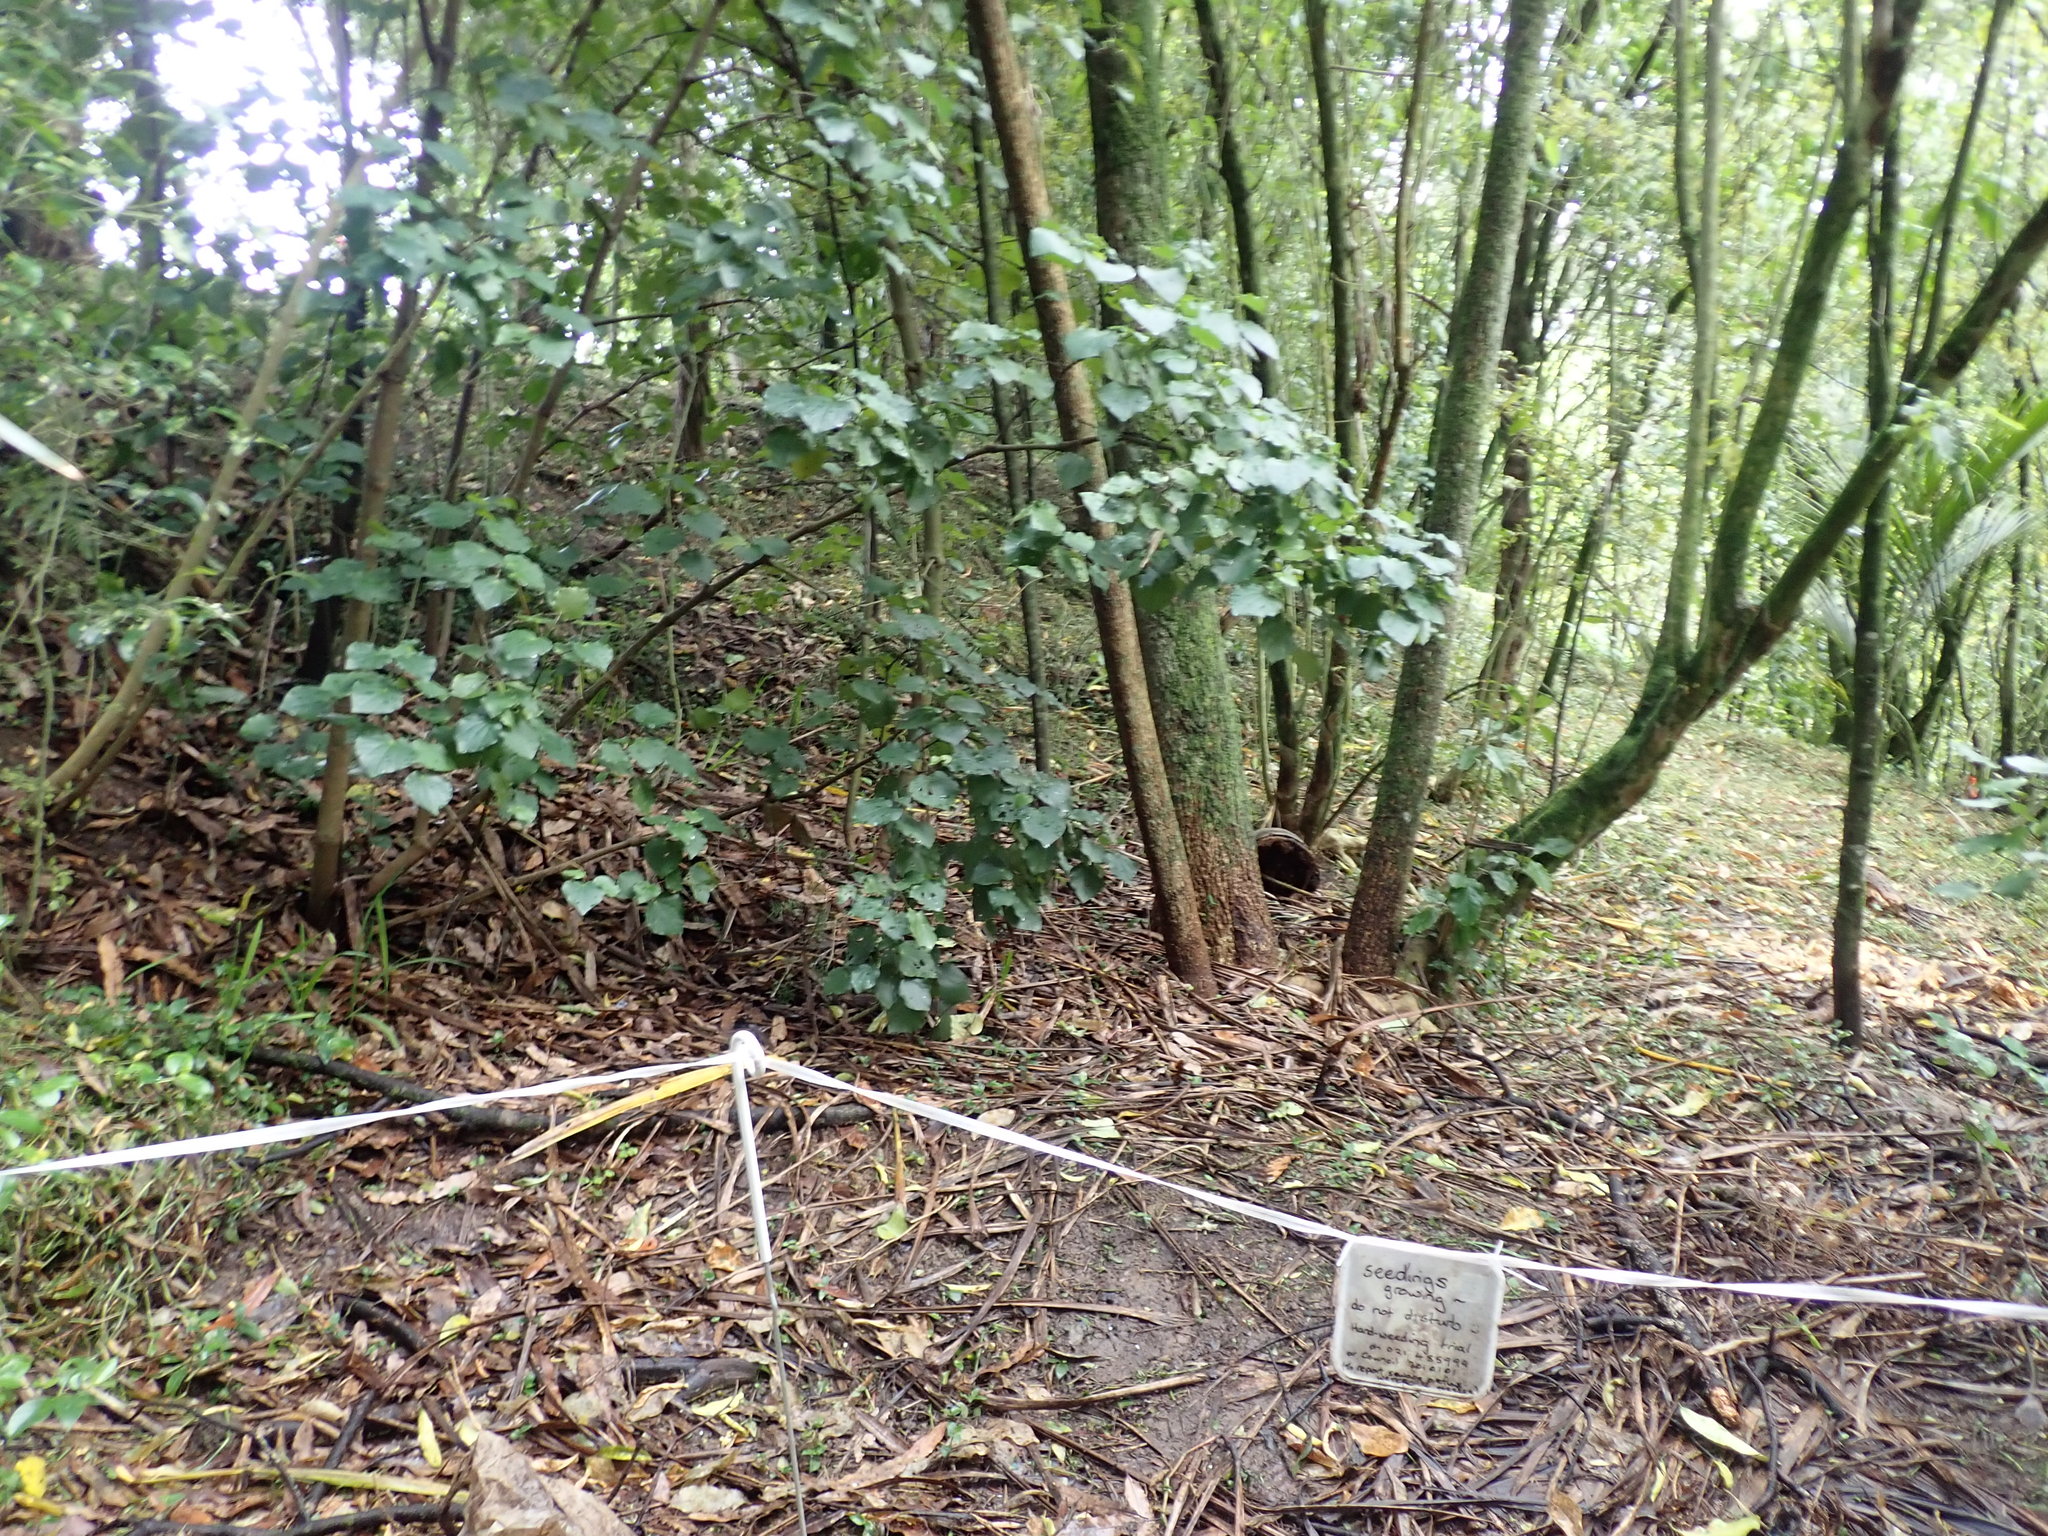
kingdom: Plantae
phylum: Tracheophyta
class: Magnoliopsida
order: Piperales
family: Piperaceae
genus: Macropiper
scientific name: Macropiper excelsum
